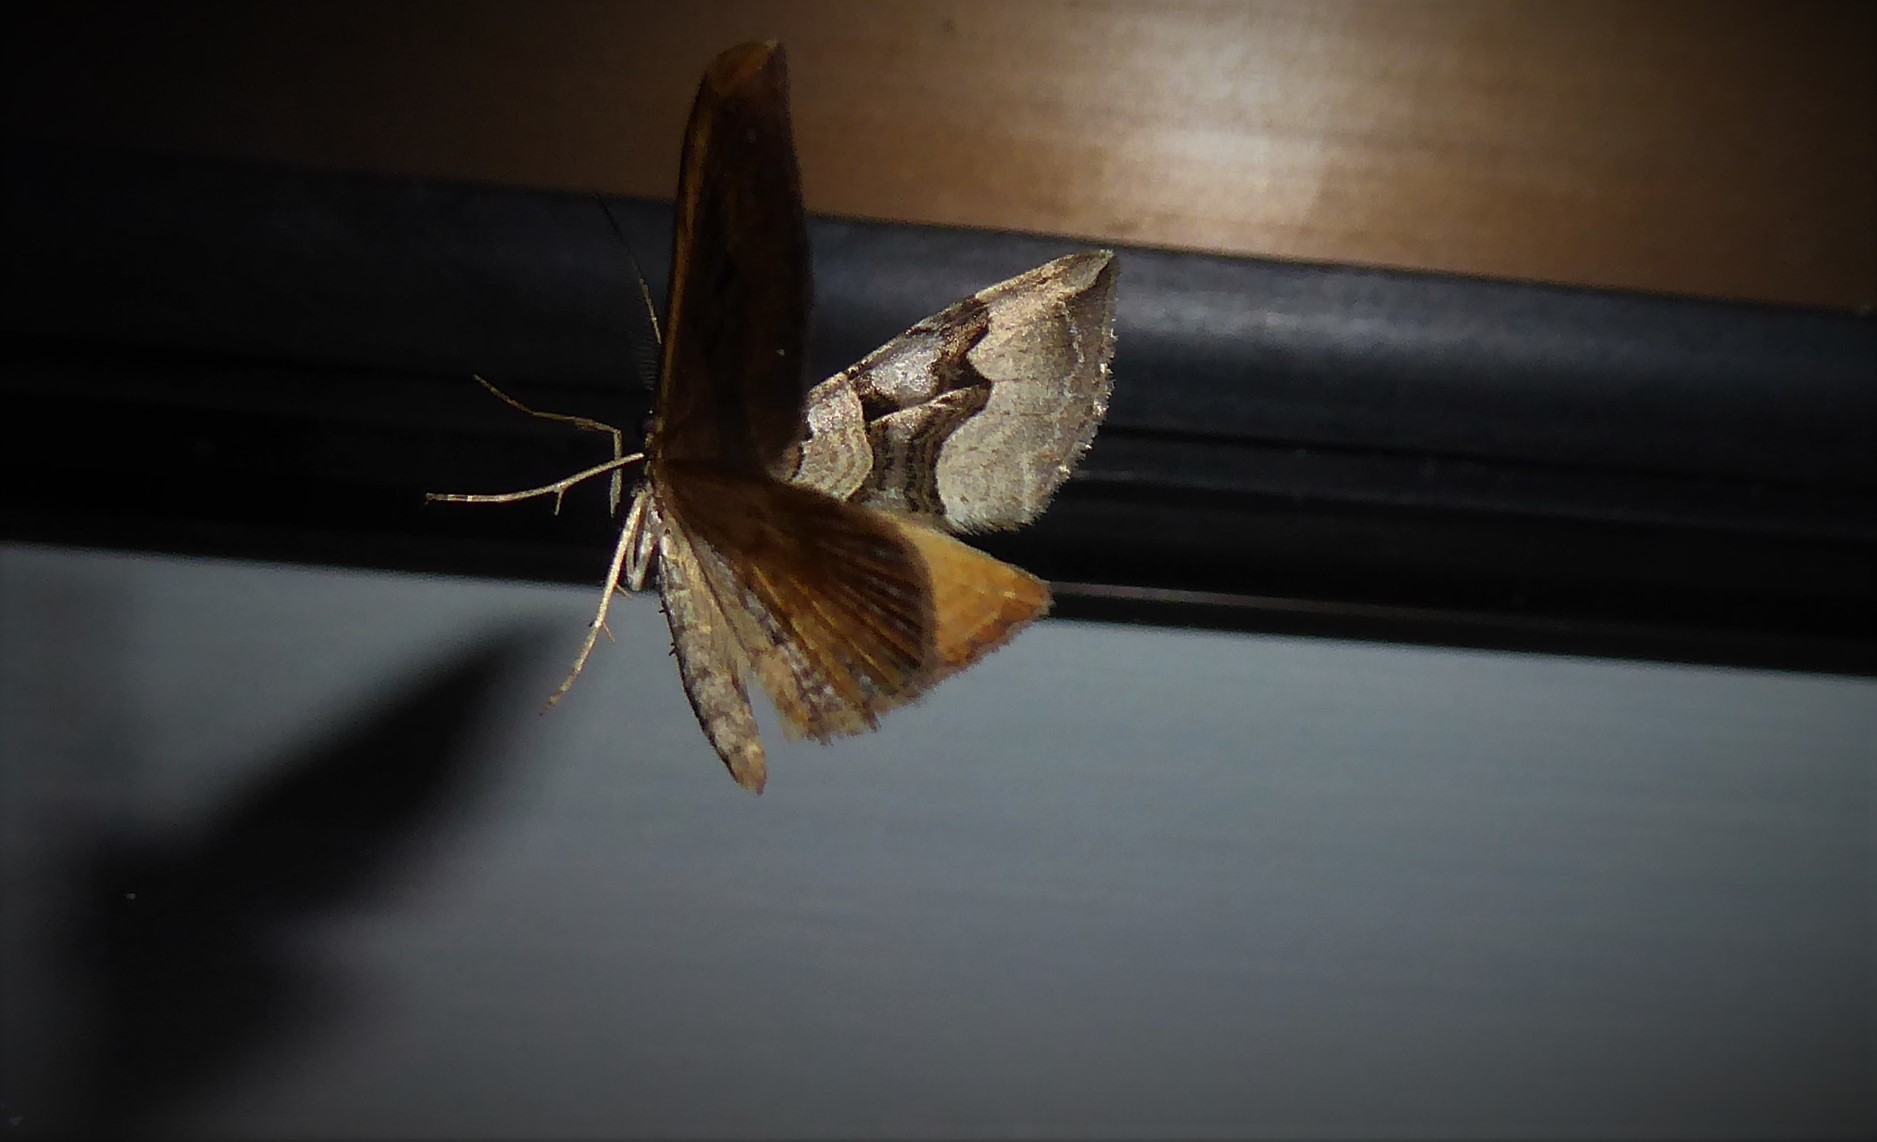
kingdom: Animalia
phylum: Arthropoda
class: Insecta
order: Lepidoptera
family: Geometridae
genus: Xanthorhoe
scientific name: Xanthorhoe semifissata
